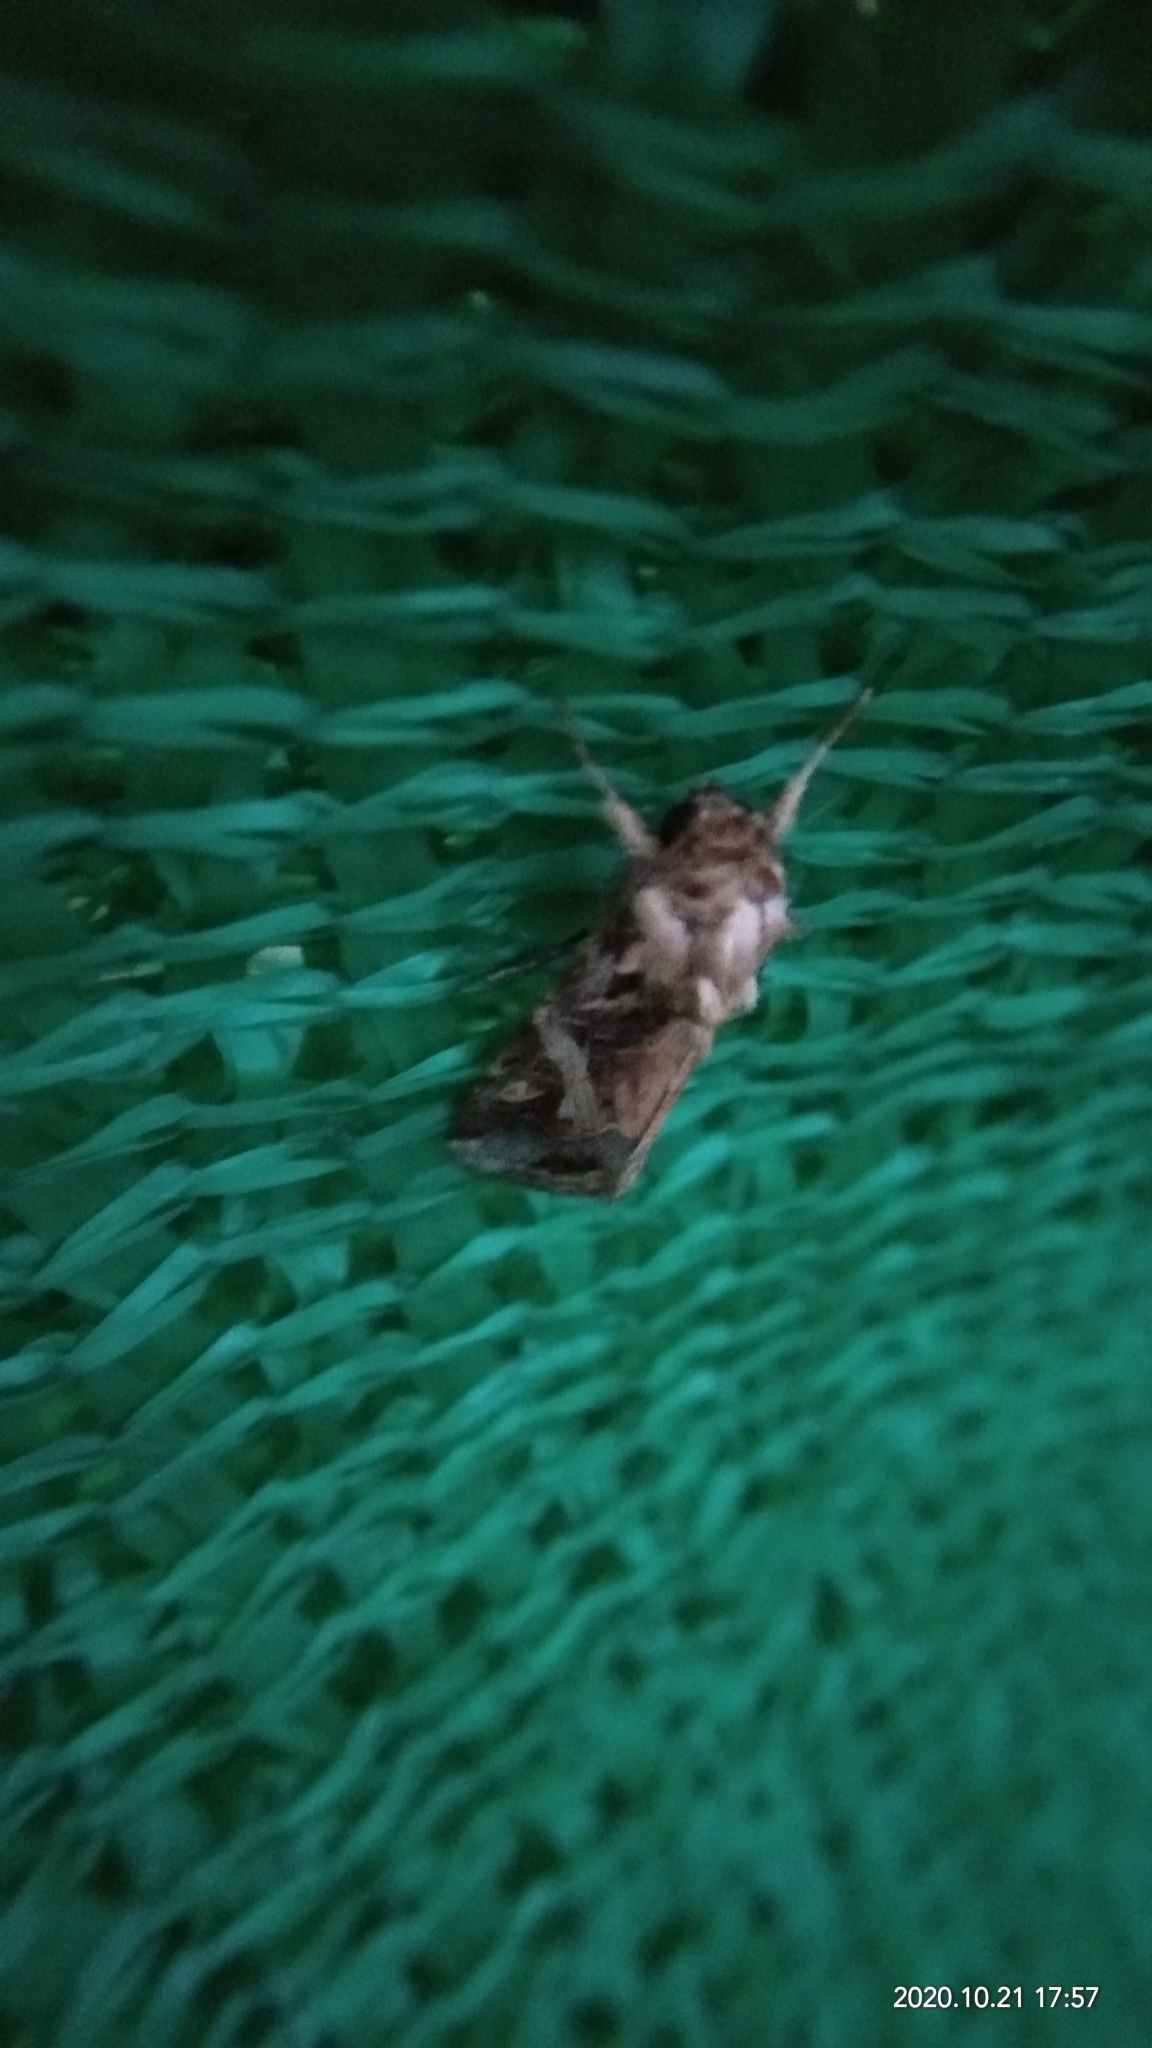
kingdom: Animalia
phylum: Arthropoda
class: Insecta
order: Lepidoptera
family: Noctuidae
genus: Spodoptera
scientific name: Spodoptera frugiperda
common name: Fall armyworm
